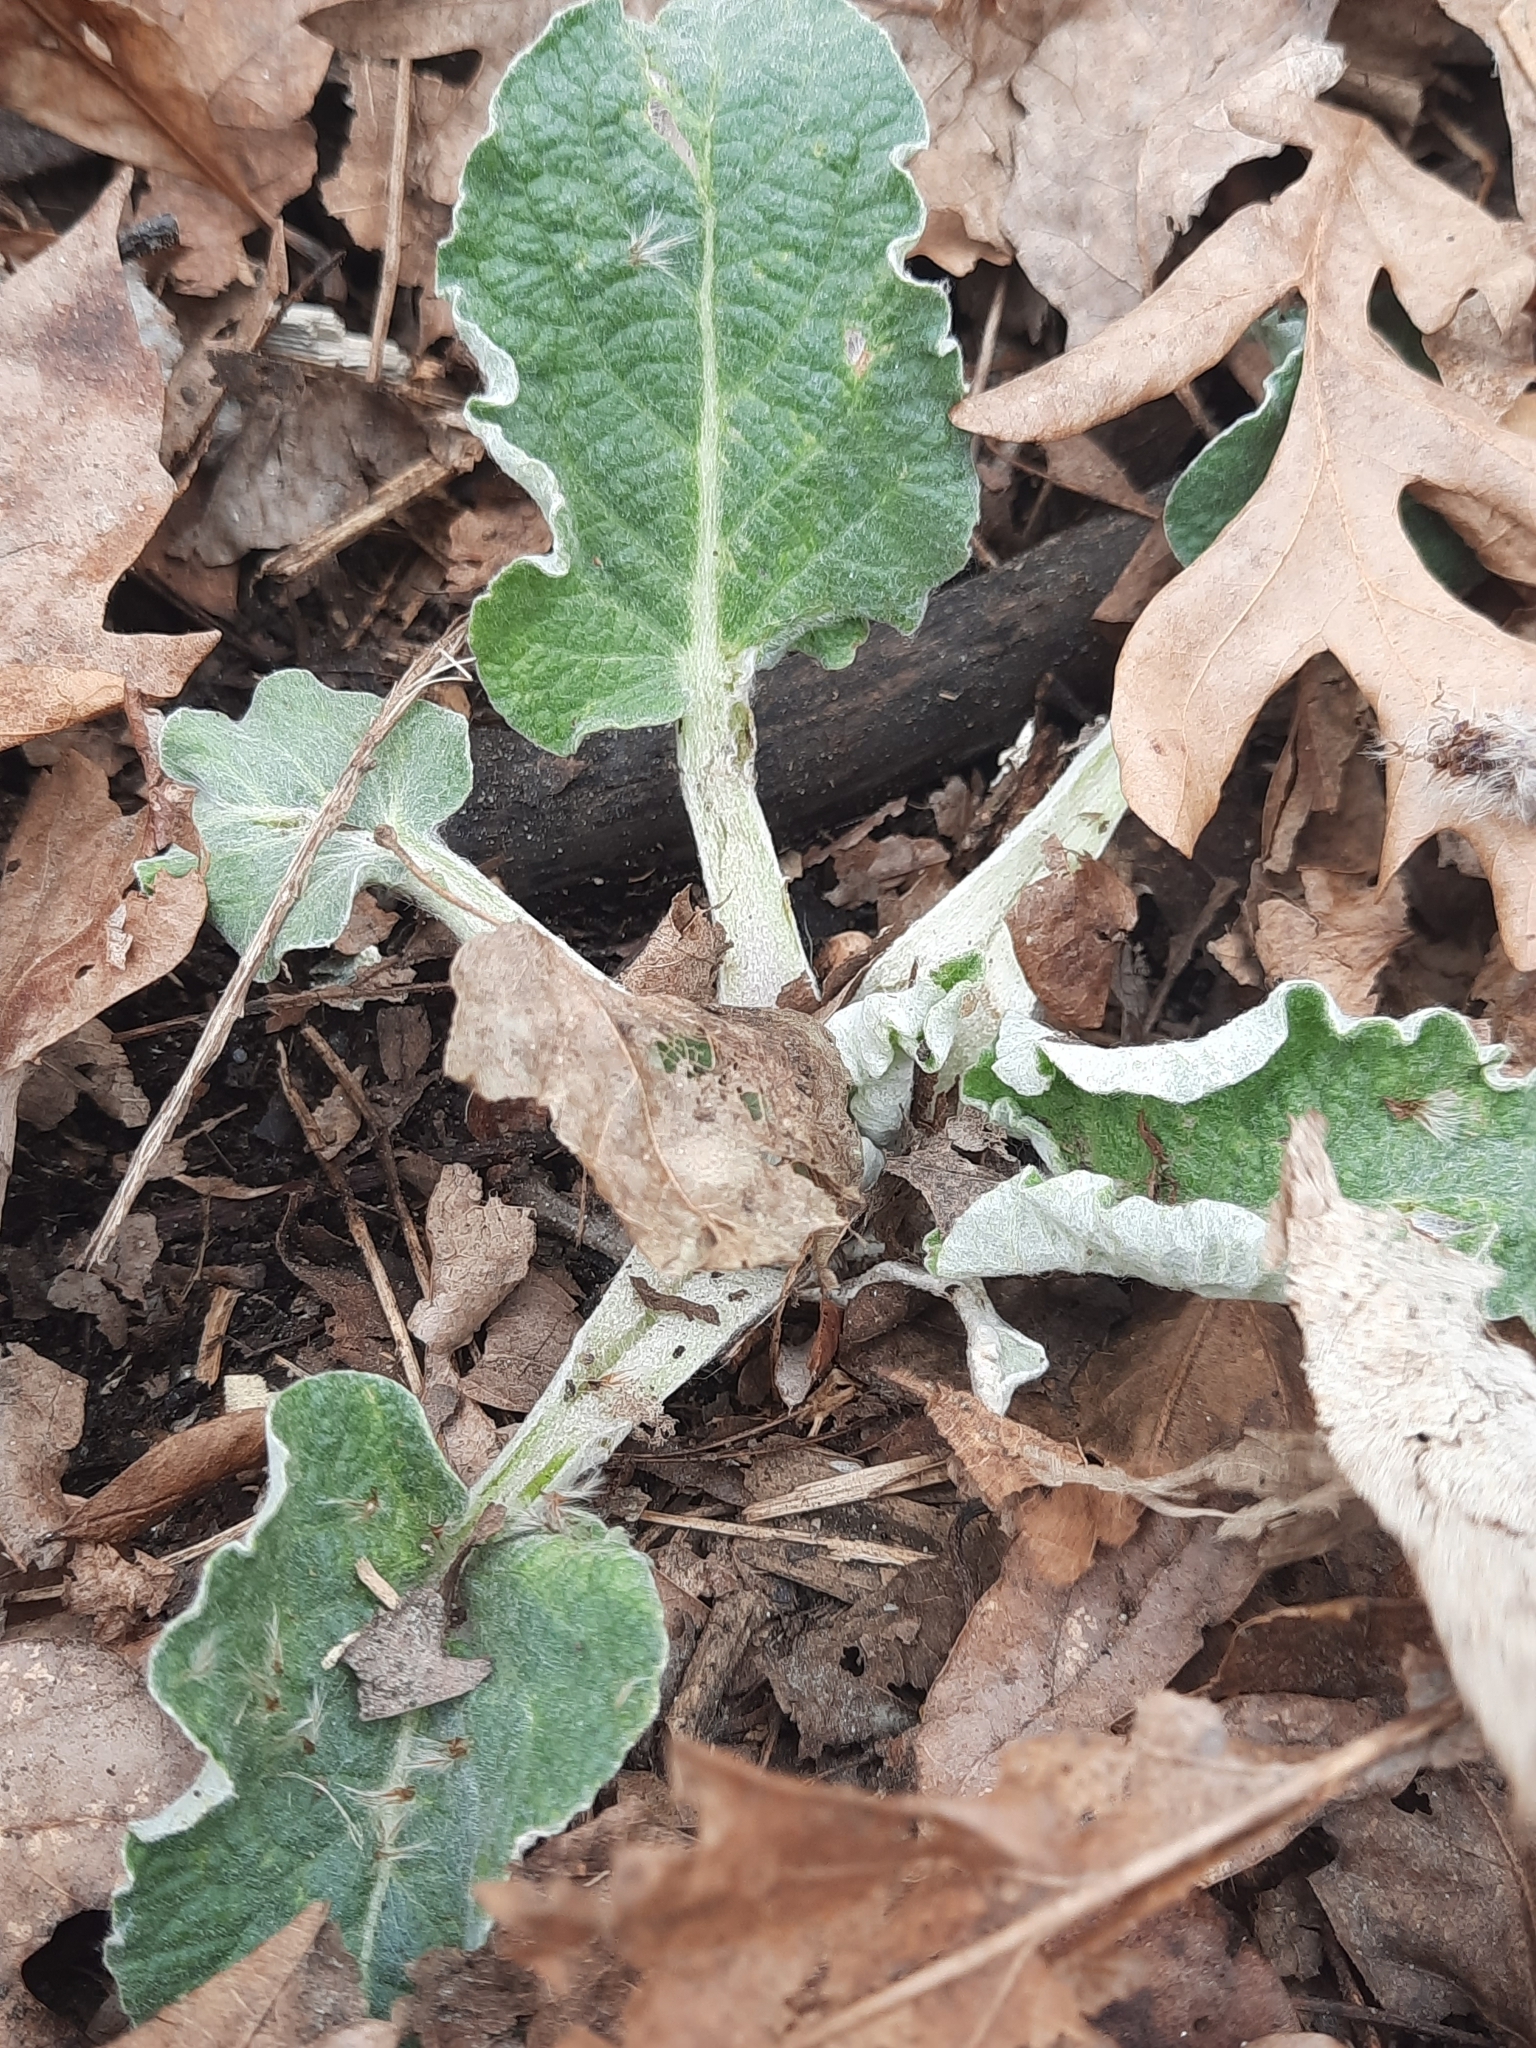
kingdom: Plantae
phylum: Tracheophyta
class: Magnoliopsida
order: Asterales
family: Asteraceae
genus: Arctium
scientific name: Arctium minus
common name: Lesser burdock
